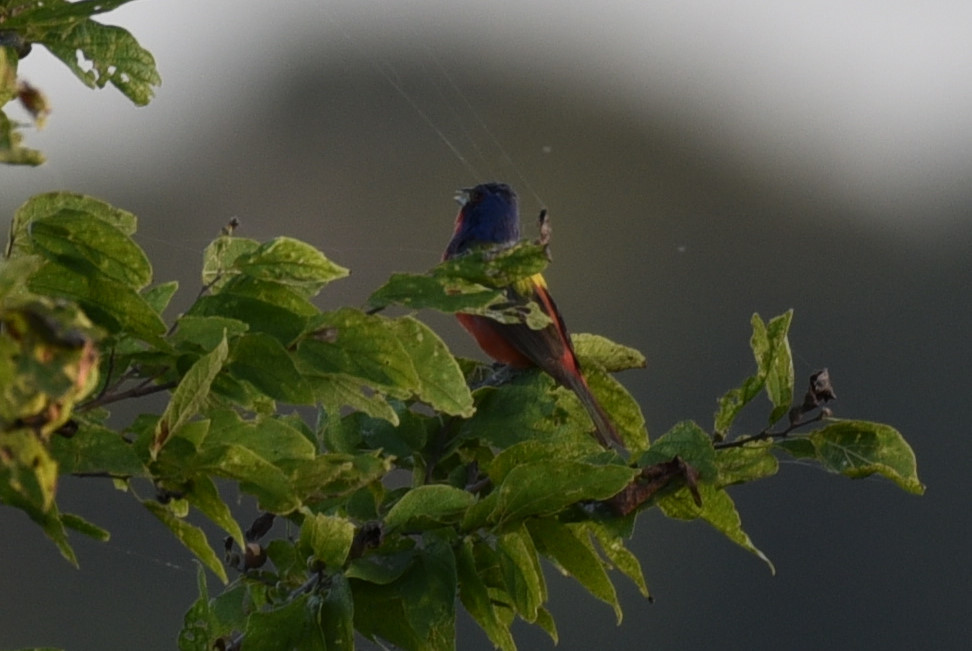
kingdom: Animalia
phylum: Chordata
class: Aves
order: Passeriformes
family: Cardinalidae
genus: Passerina
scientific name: Passerina ciris
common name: Painted bunting
